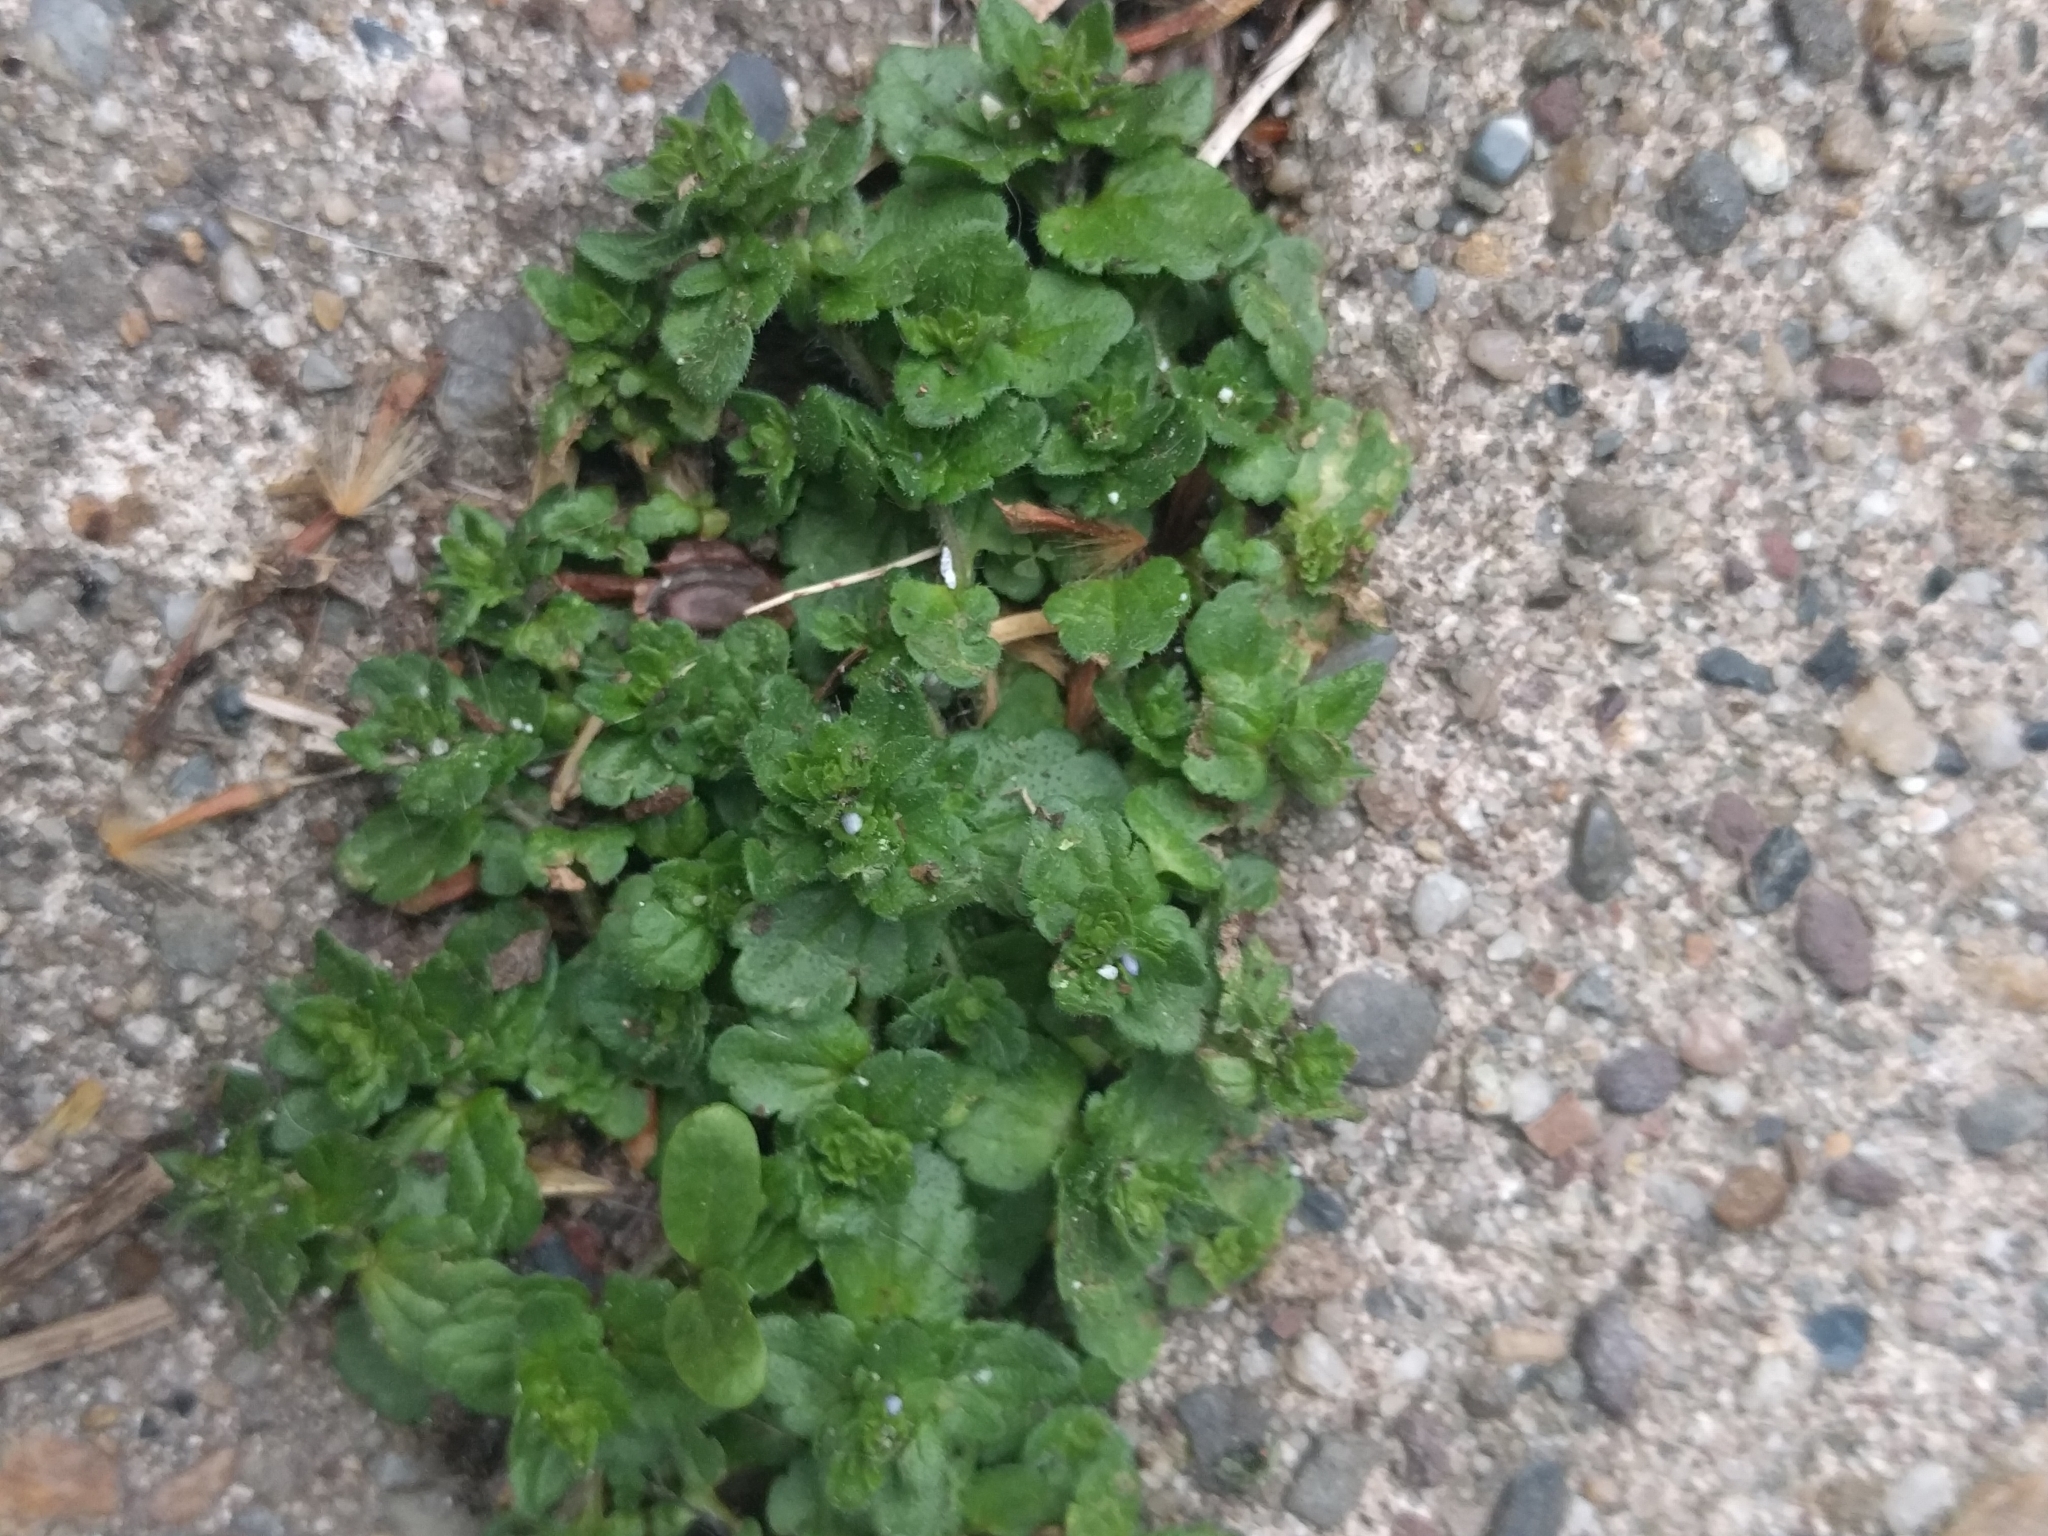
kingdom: Plantae
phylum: Tracheophyta
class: Magnoliopsida
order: Lamiales
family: Plantaginaceae
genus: Veronica
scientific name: Veronica arvensis
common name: Corn speedwell
